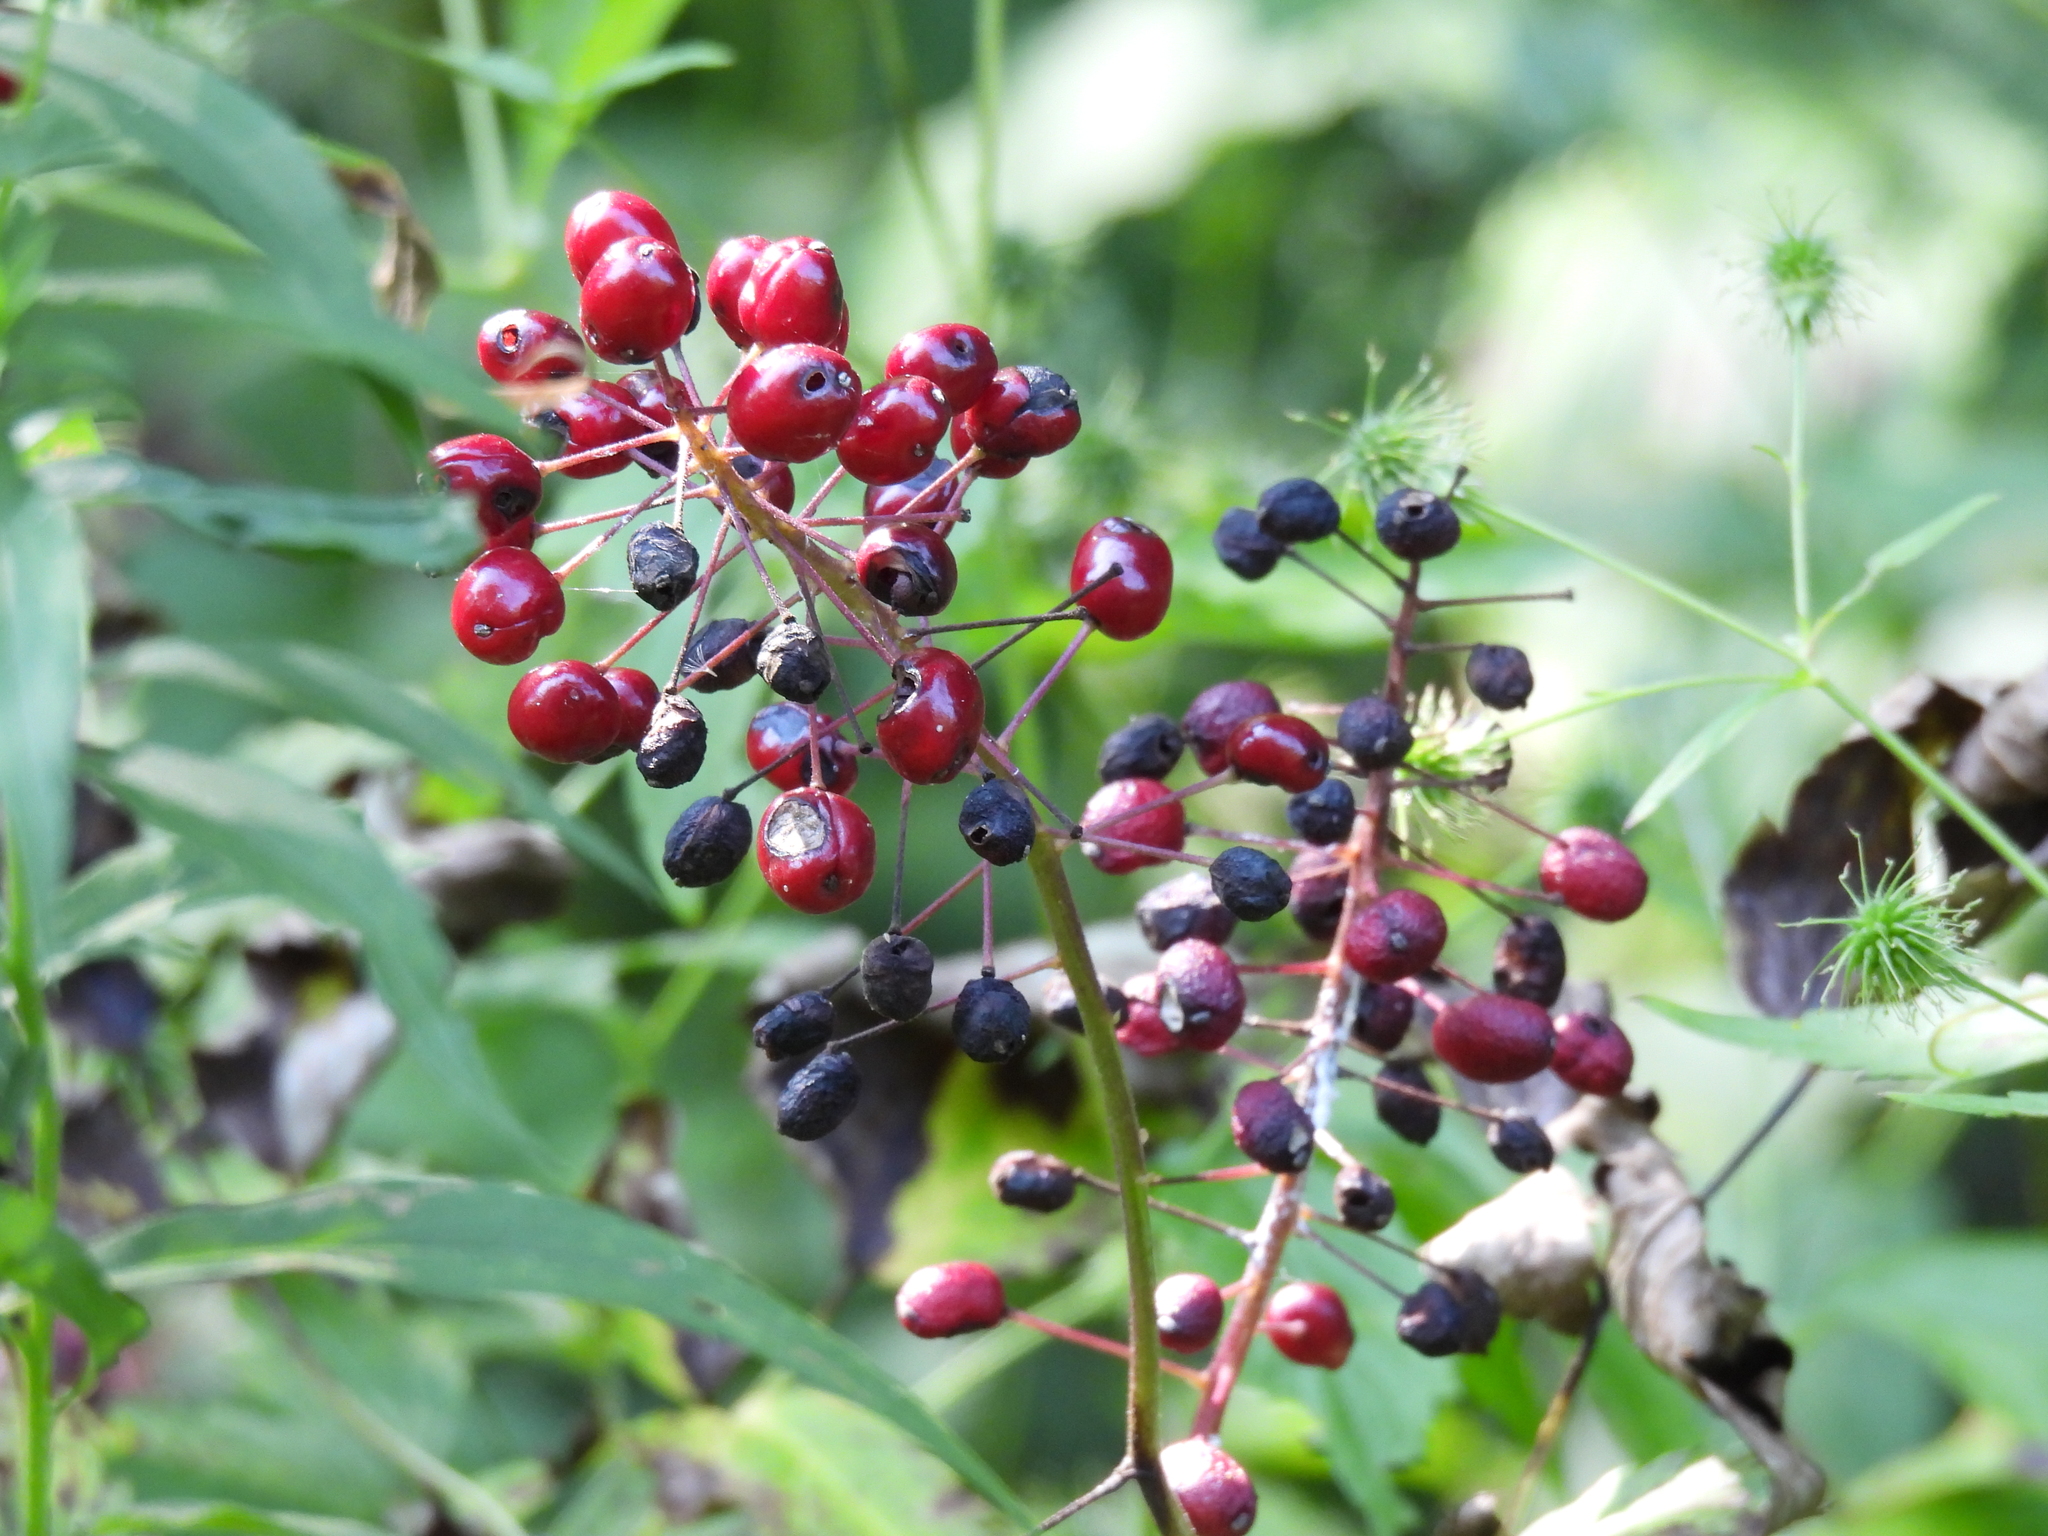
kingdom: Plantae
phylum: Tracheophyta
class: Magnoliopsida
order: Ranunculales
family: Ranunculaceae
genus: Actaea
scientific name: Actaea rubra
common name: Red baneberry
